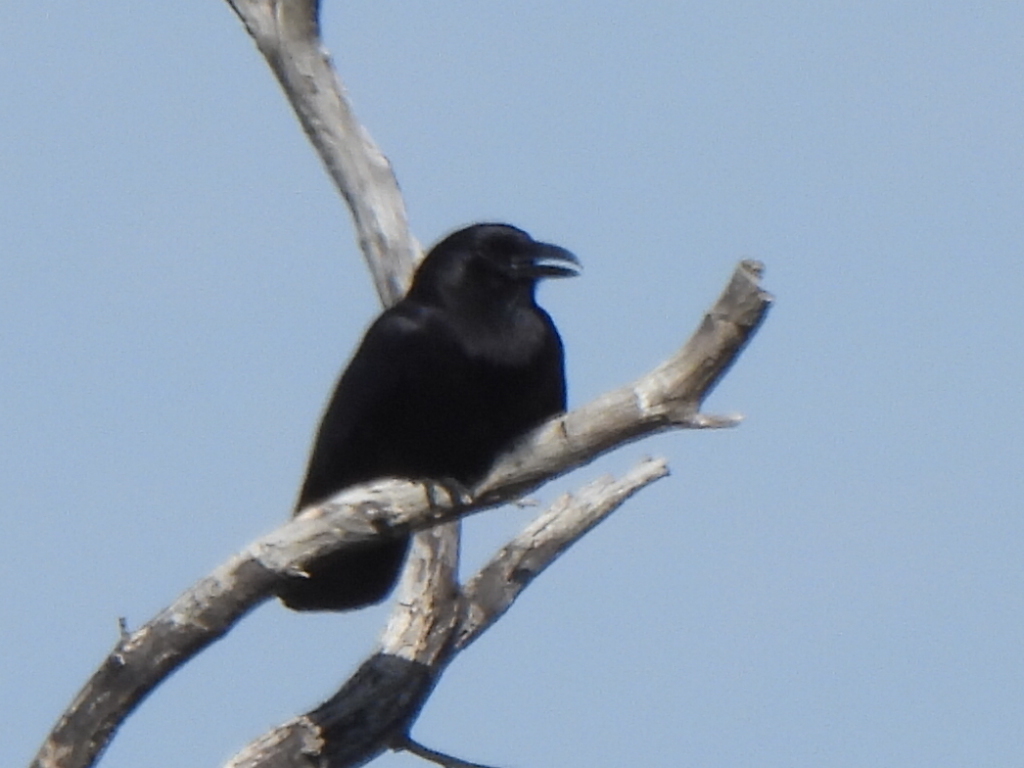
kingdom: Animalia
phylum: Chordata
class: Aves
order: Passeriformes
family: Corvidae
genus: Corvus
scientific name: Corvus brachyrhynchos
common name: American crow
